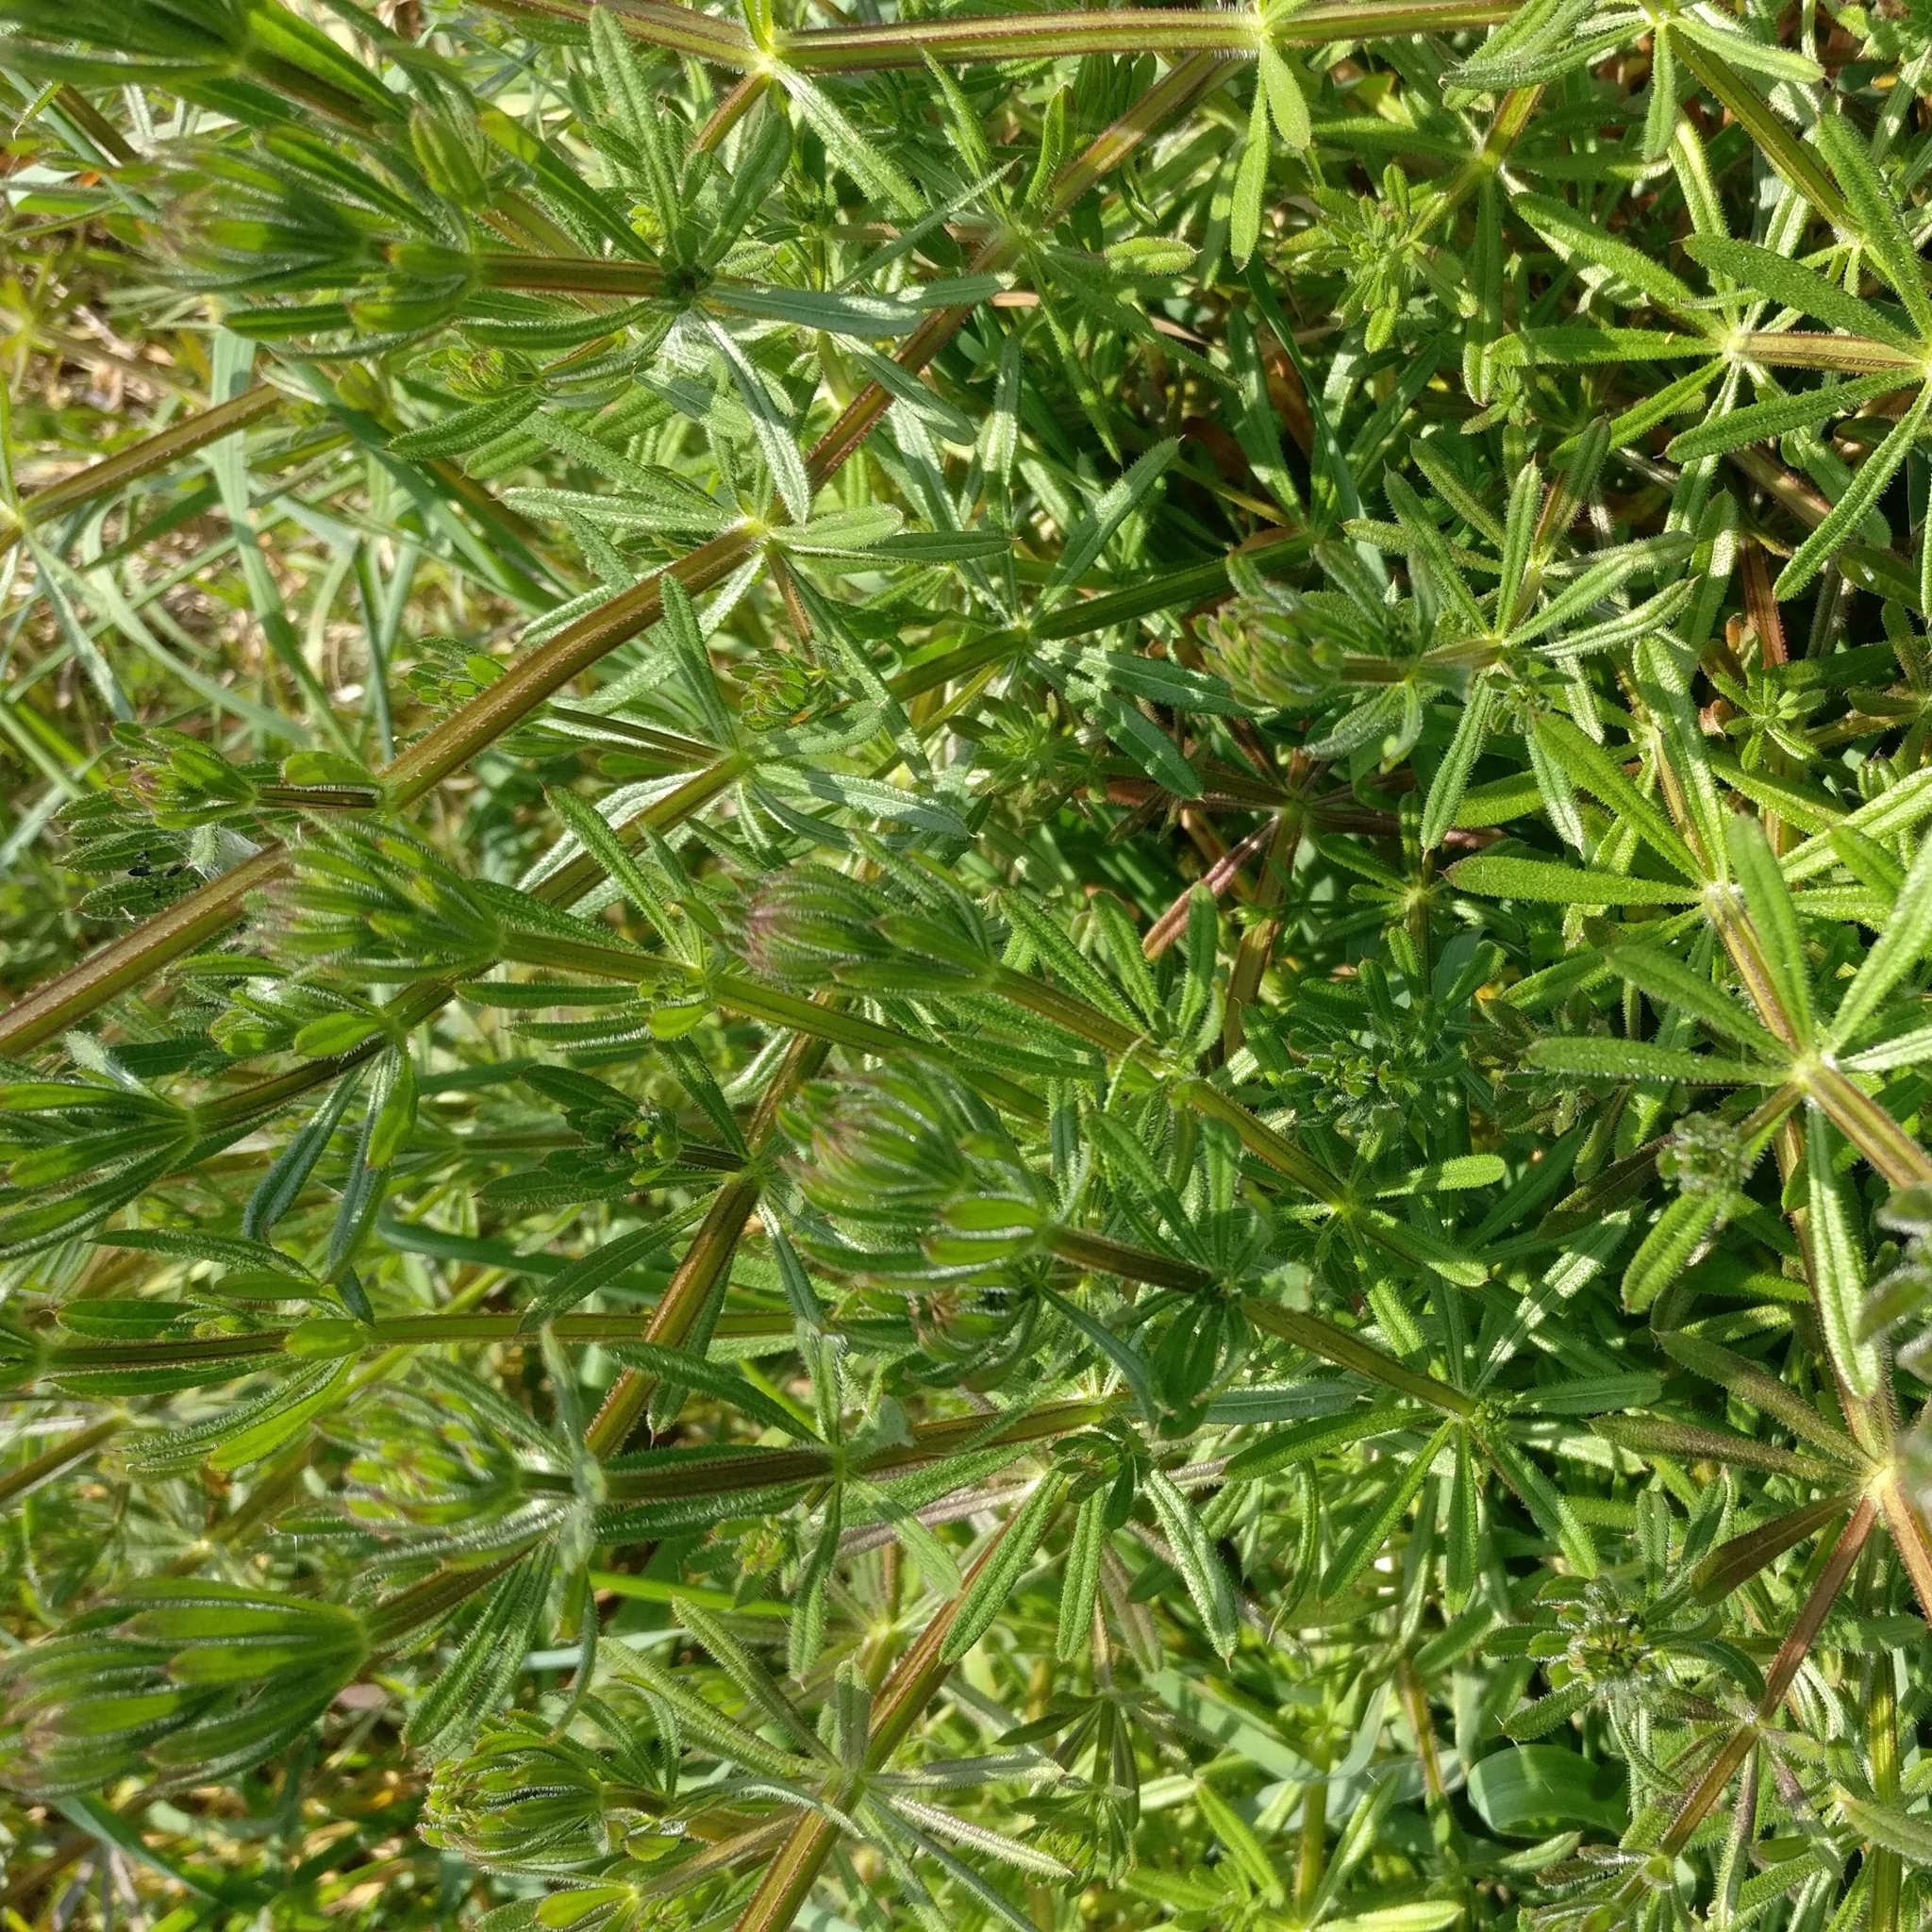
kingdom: Plantae
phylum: Tracheophyta
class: Magnoliopsida
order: Gentianales
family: Rubiaceae
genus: Galium
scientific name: Galium aparine
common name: Cleavers
